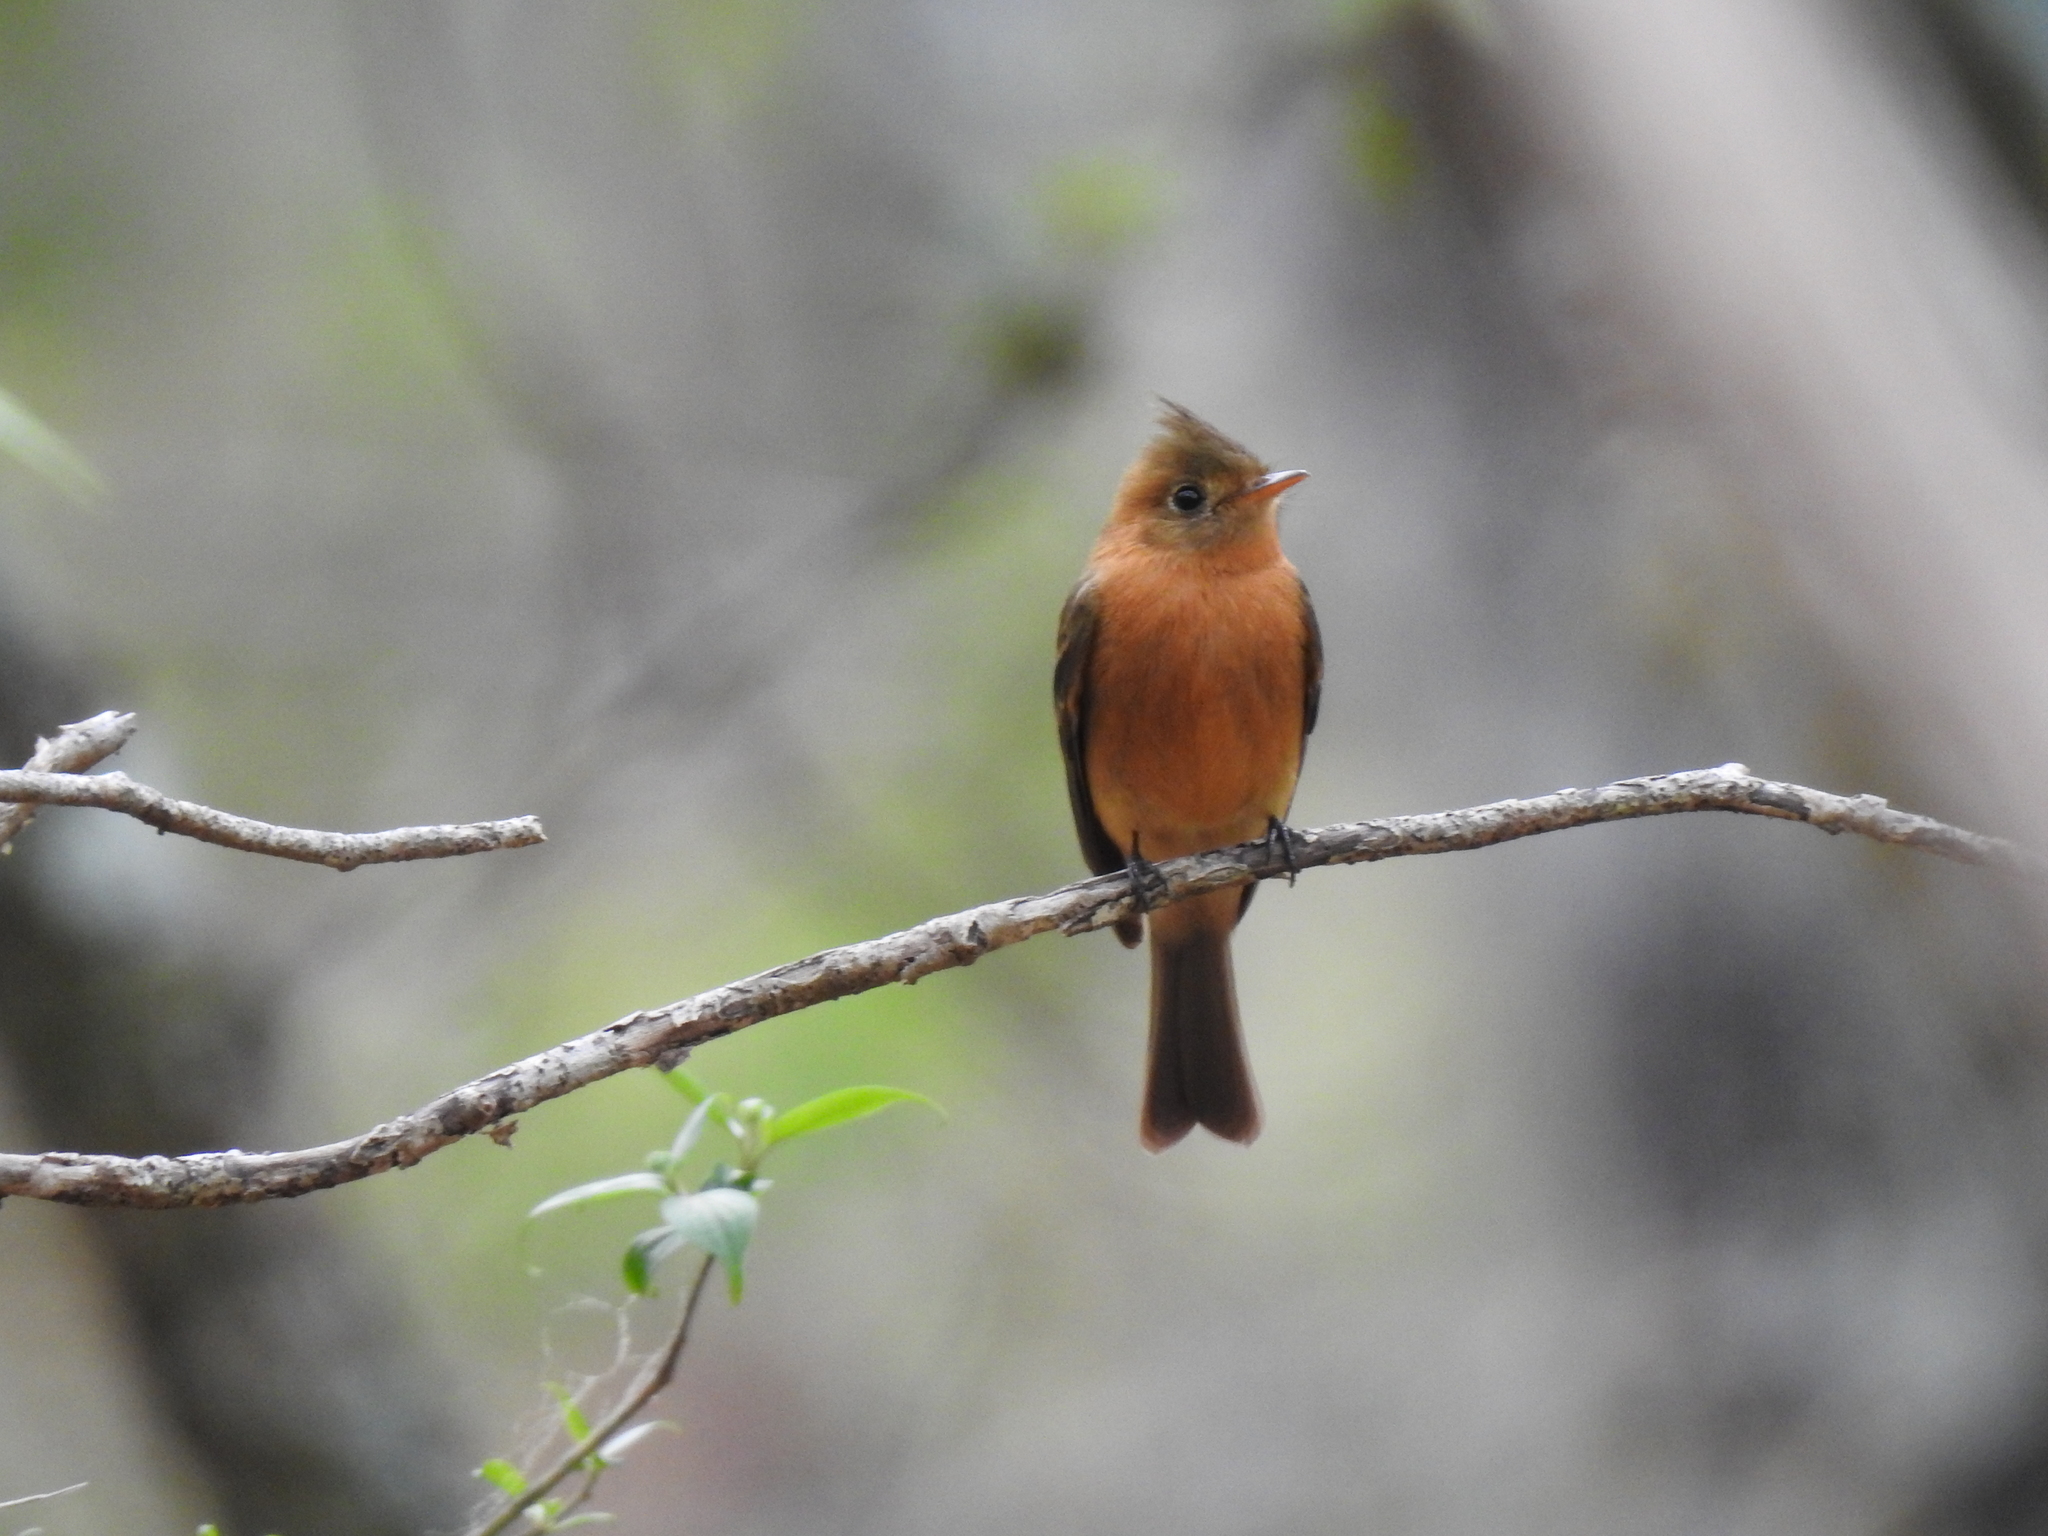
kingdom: Animalia
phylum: Chordata
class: Aves
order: Passeriformes
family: Tyrannidae
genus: Mitrephanes
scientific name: Mitrephanes phaeocercus
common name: Northern tufted flycatcher
